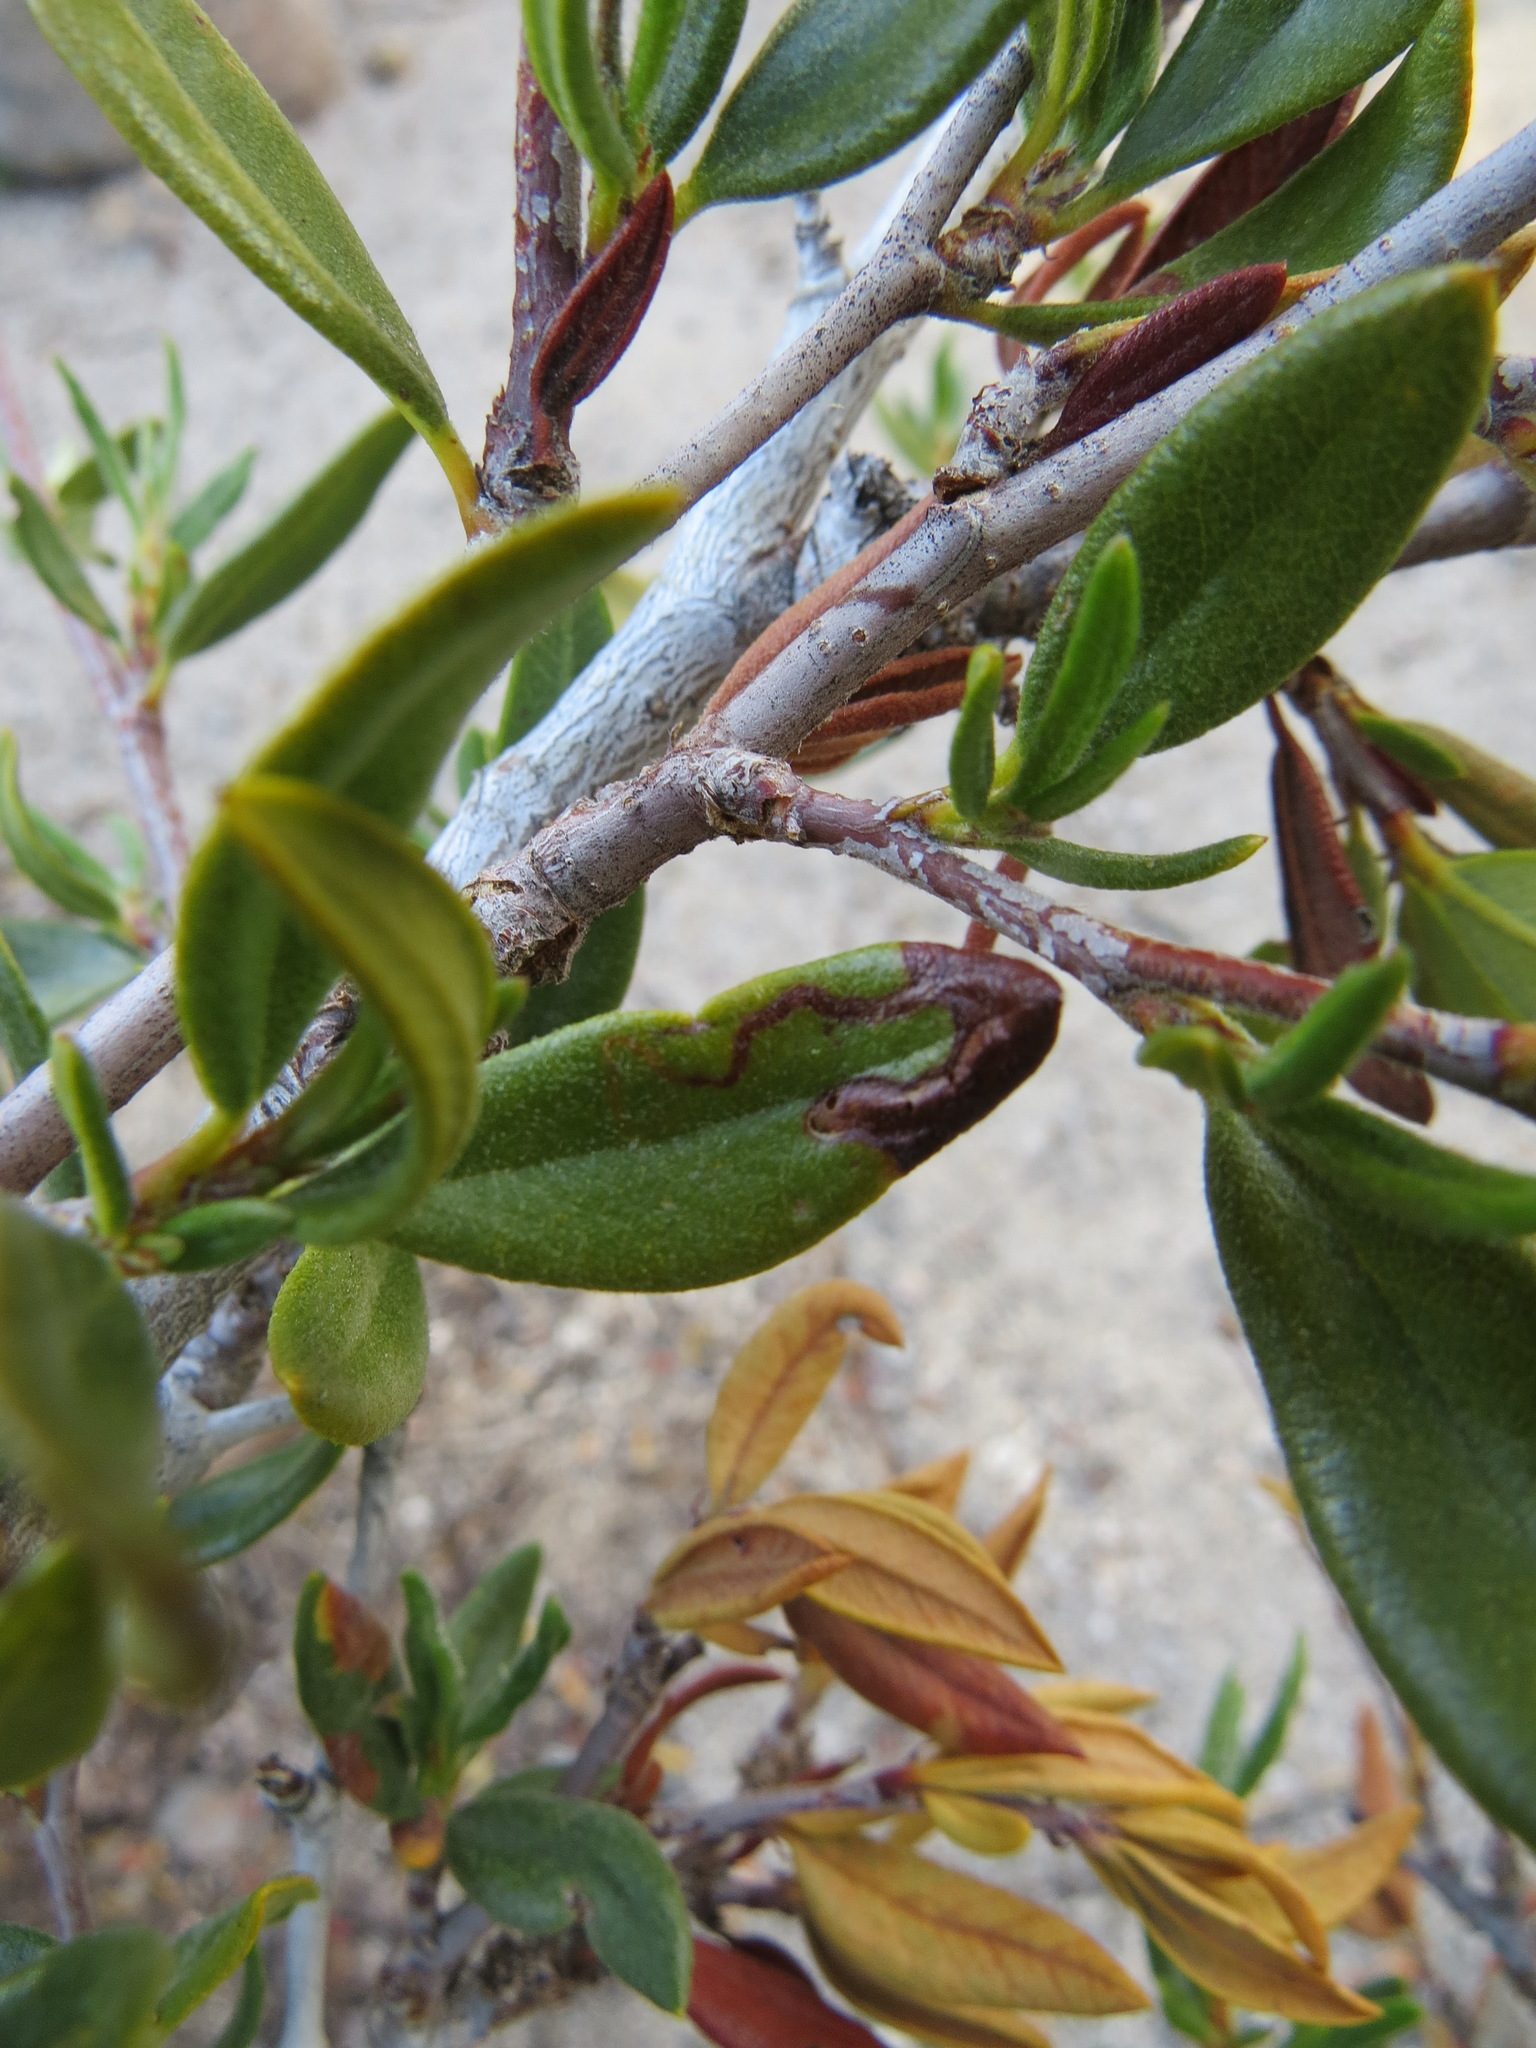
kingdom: Plantae
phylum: Tracheophyta
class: Magnoliopsida
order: Rosales
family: Rosaceae
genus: Cercocarpus
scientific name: Cercocarpus ledifolius
